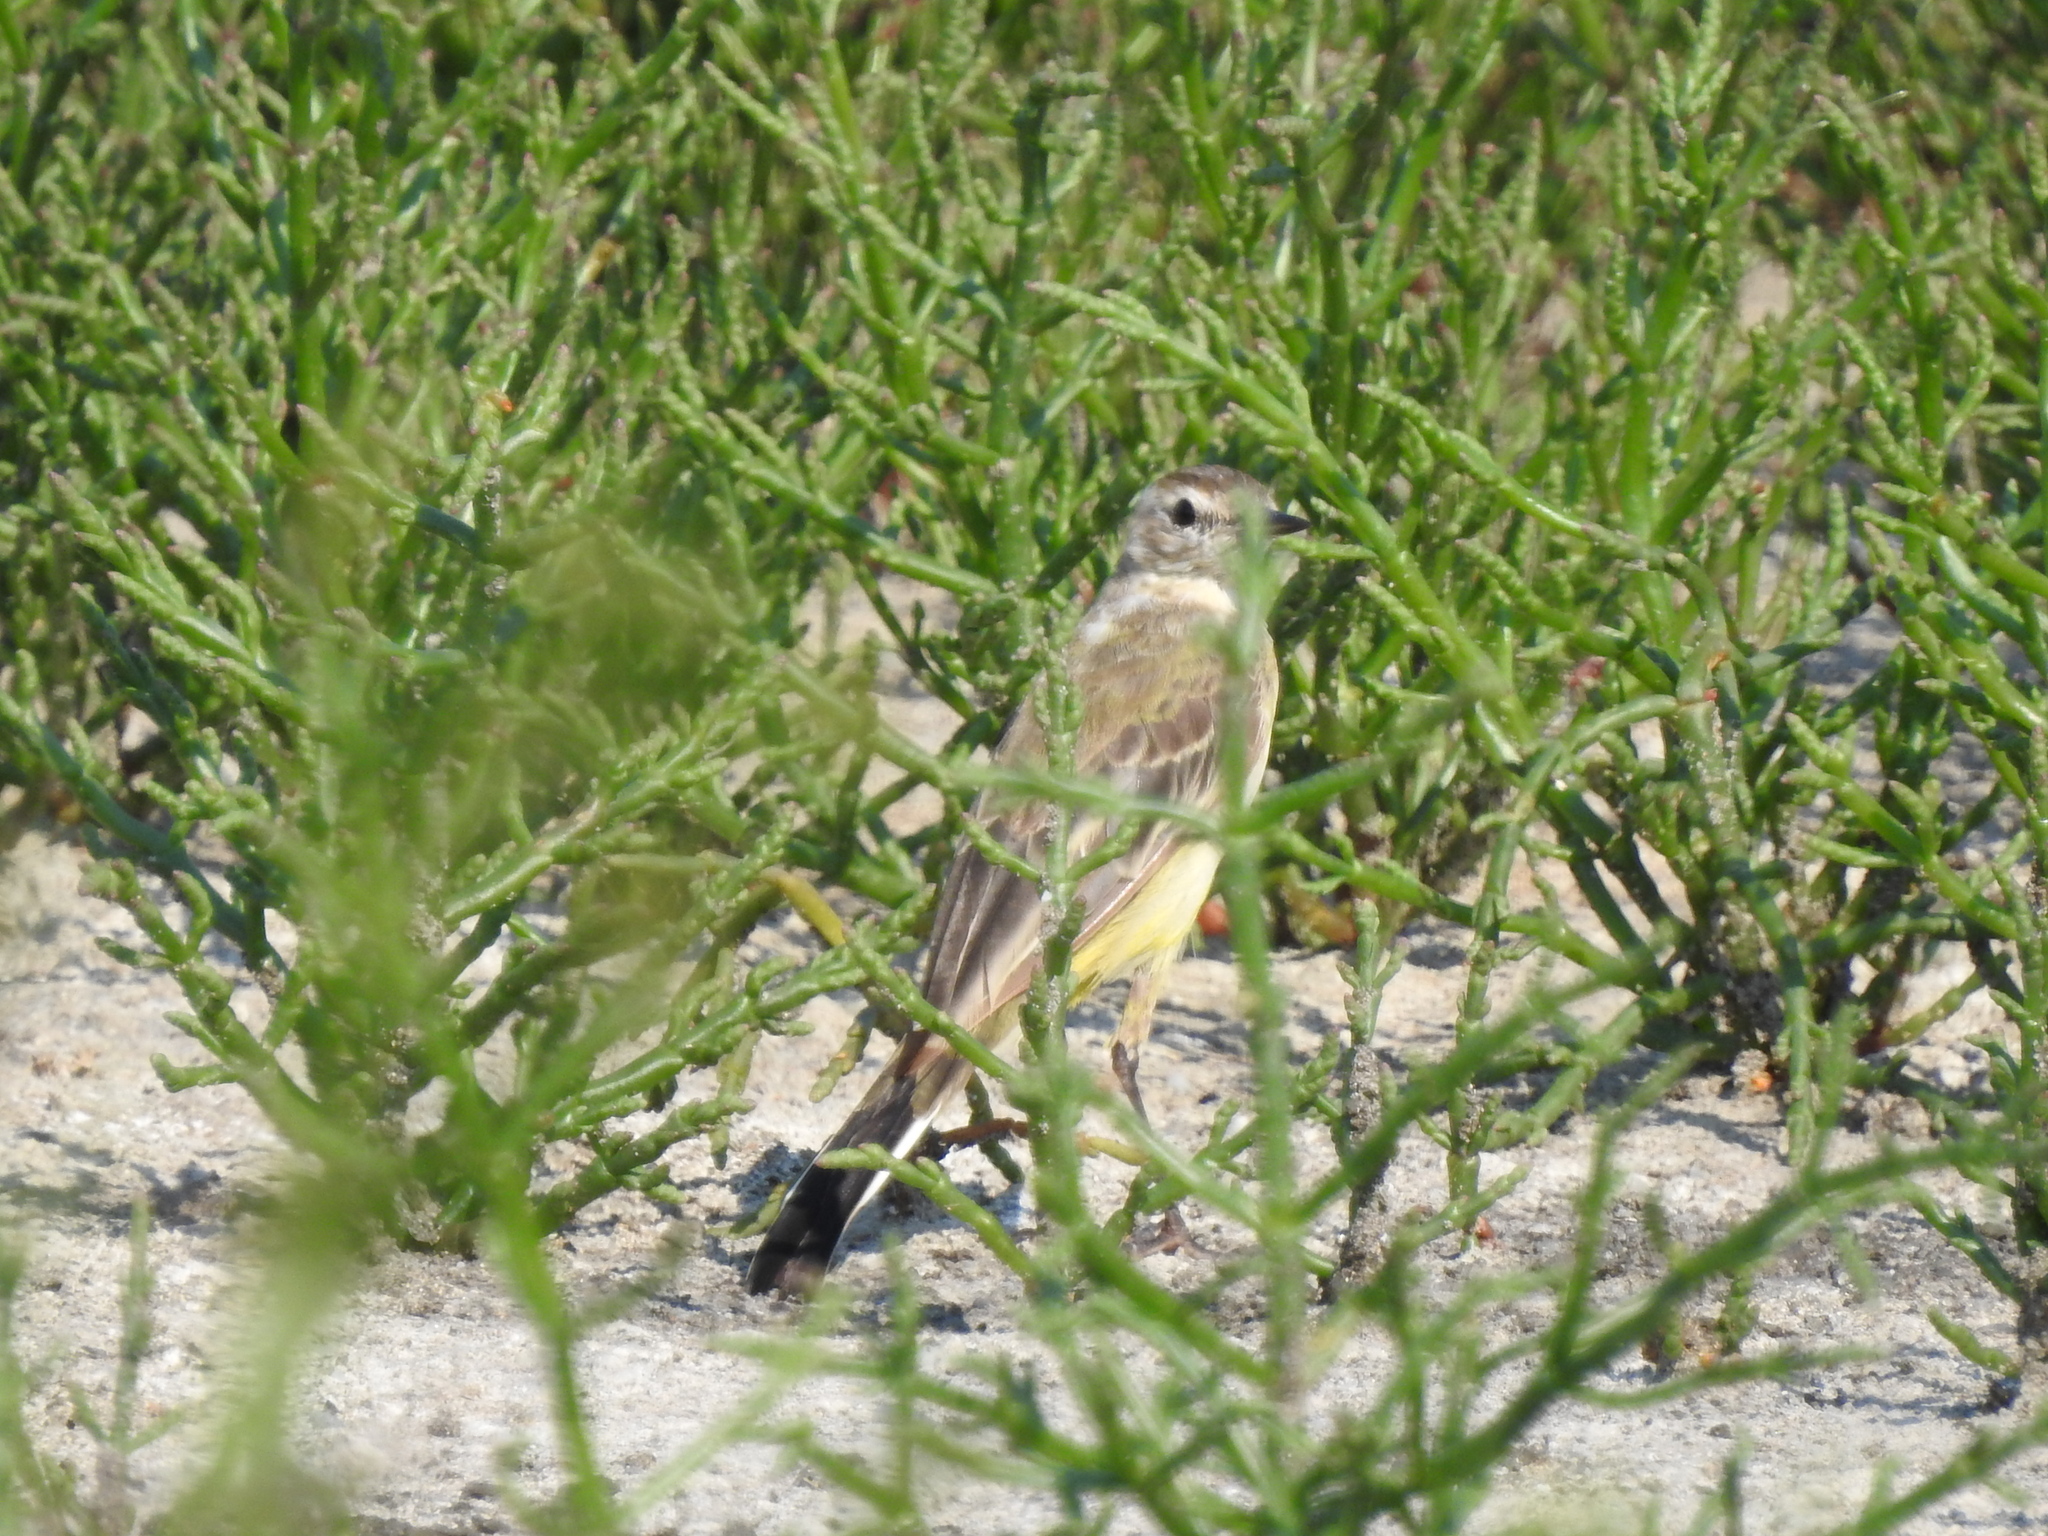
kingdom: Animalia
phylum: Chordata
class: Aves
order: Passeriformes
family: Motacillidae
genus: Motacilla
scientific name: Motacilla flava
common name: Western yellow wagtail
